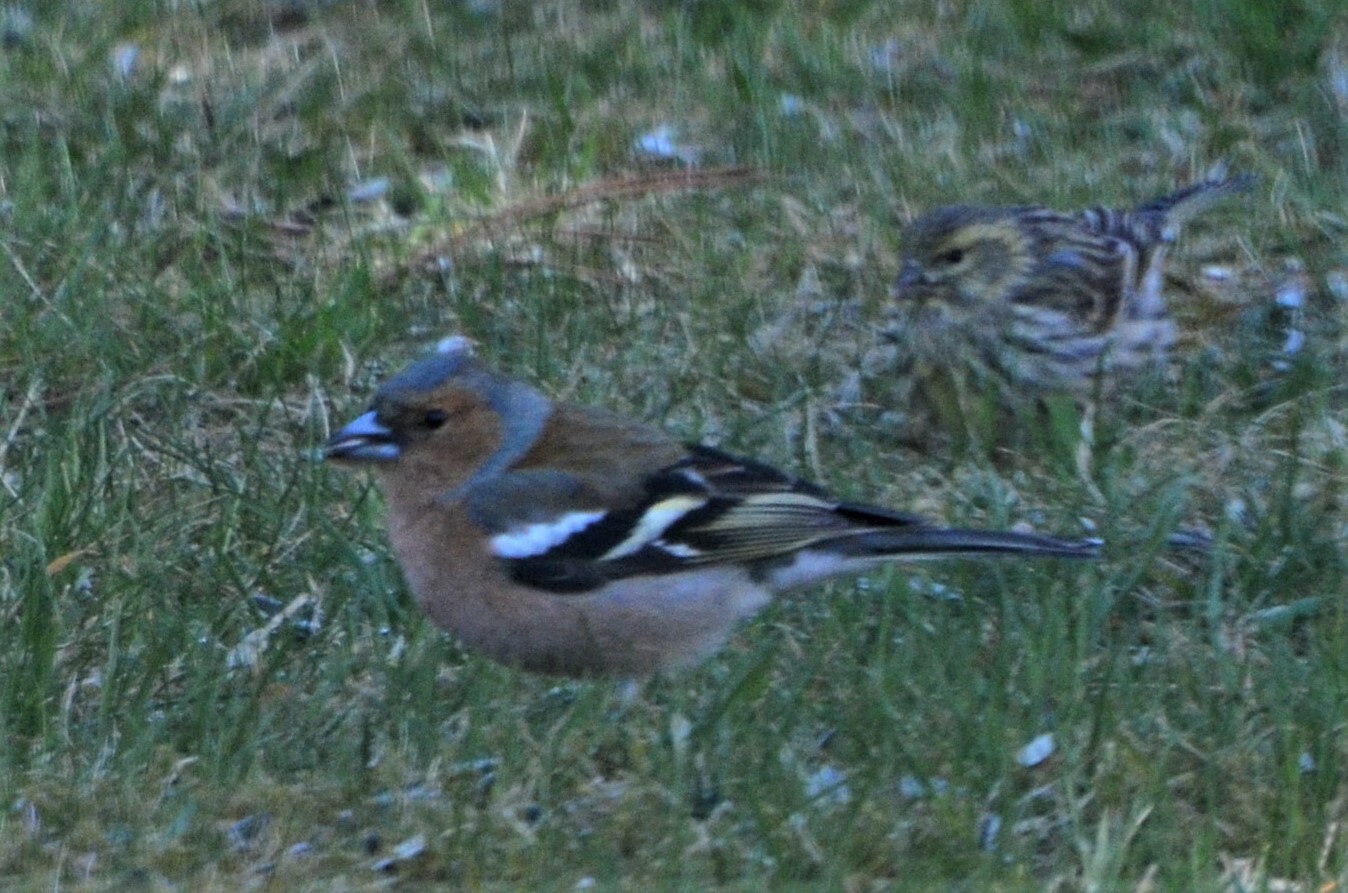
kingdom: Animalia
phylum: Chordata
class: Aves
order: Passeriformes
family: Fringillidae
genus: Fringilla
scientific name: Fringilla coelebs
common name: Common chaffinch
